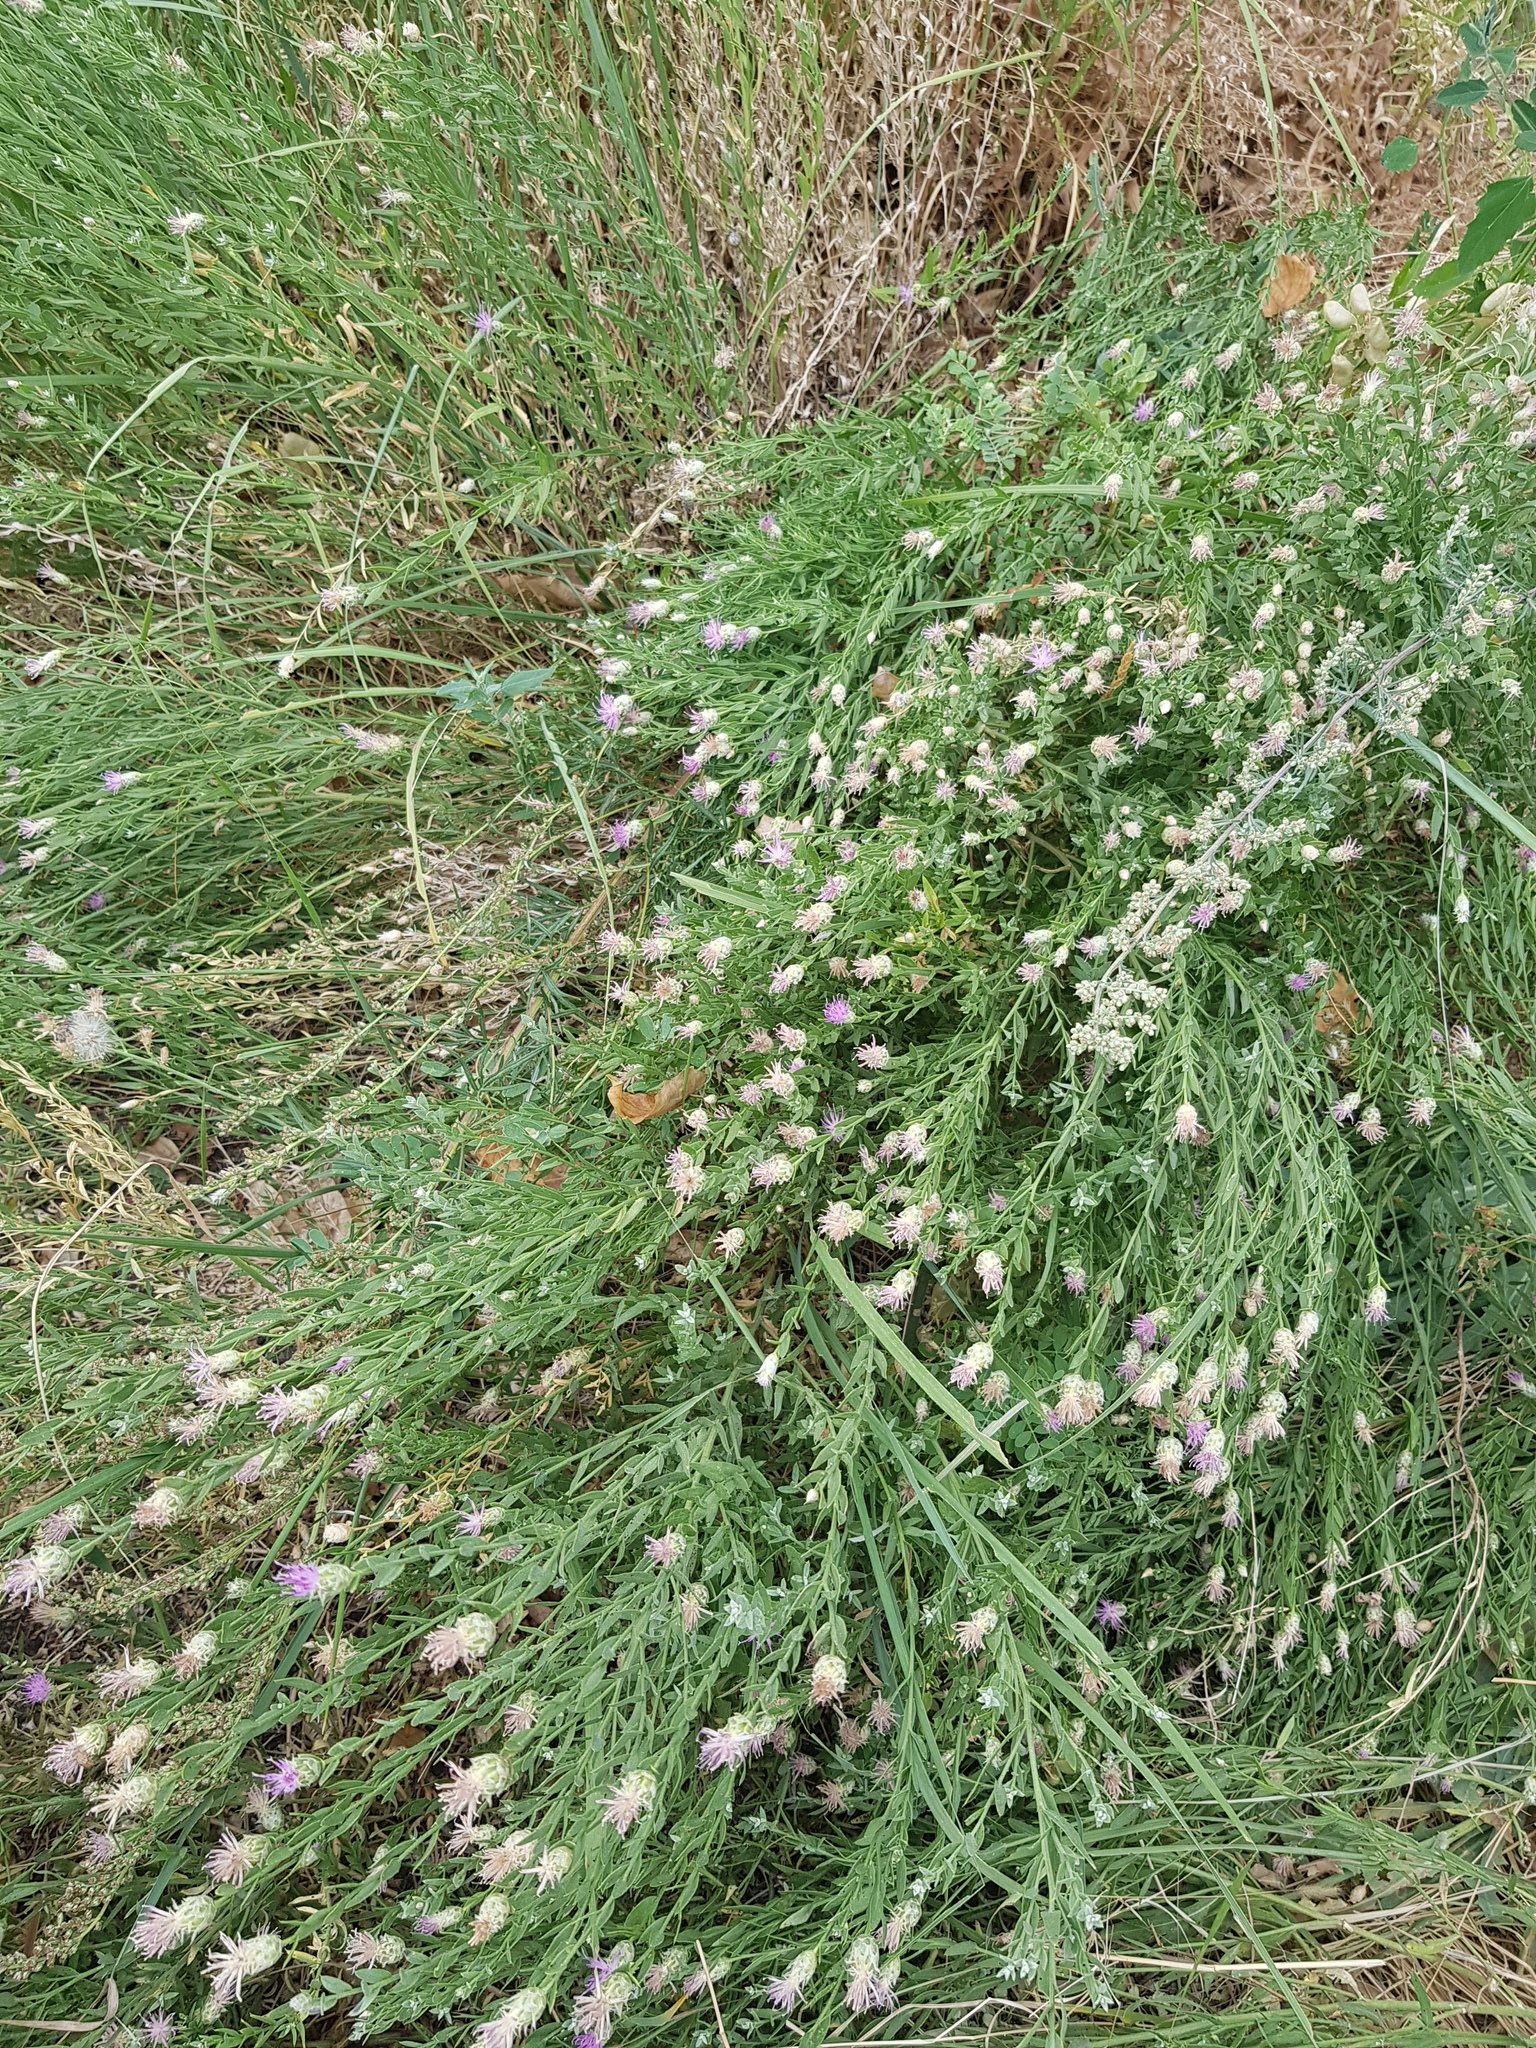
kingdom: Plantae
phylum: Tracheophyta
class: Magnoliopsida
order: Asterales
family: Asteraceae
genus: Leuzea
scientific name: Leuzea repens
